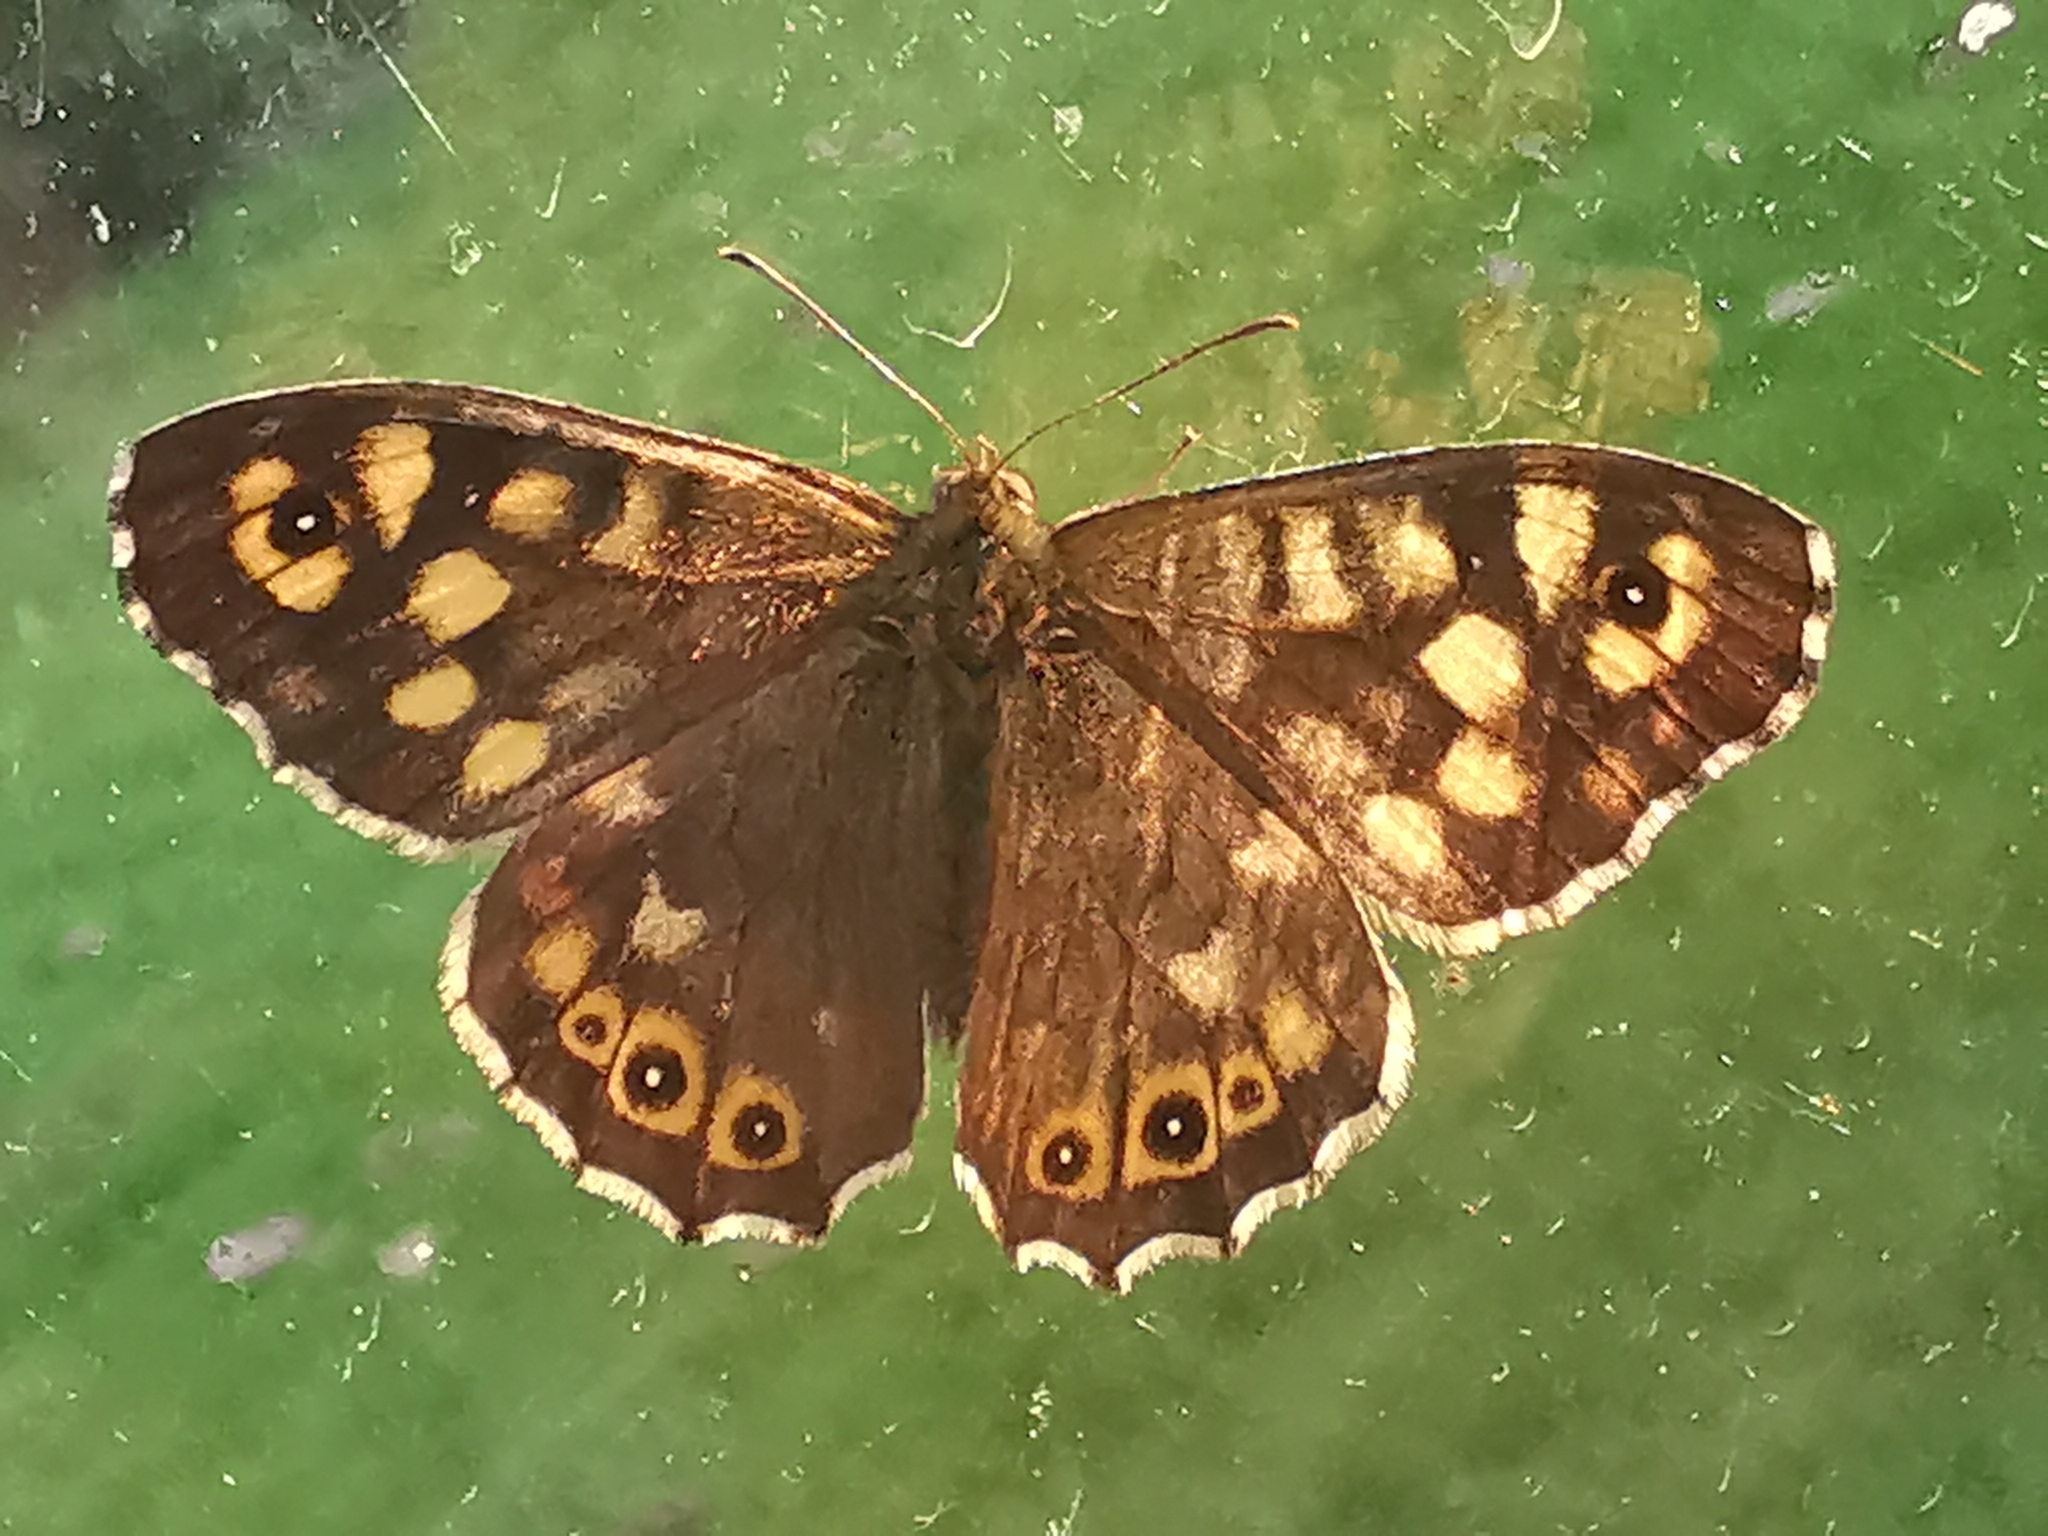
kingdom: Animalia
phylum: Arthropoda
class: Insecta
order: Lepidoptera
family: Nymphalidae
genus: Pararge
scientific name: Pararge aegeria
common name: Speckled wood
